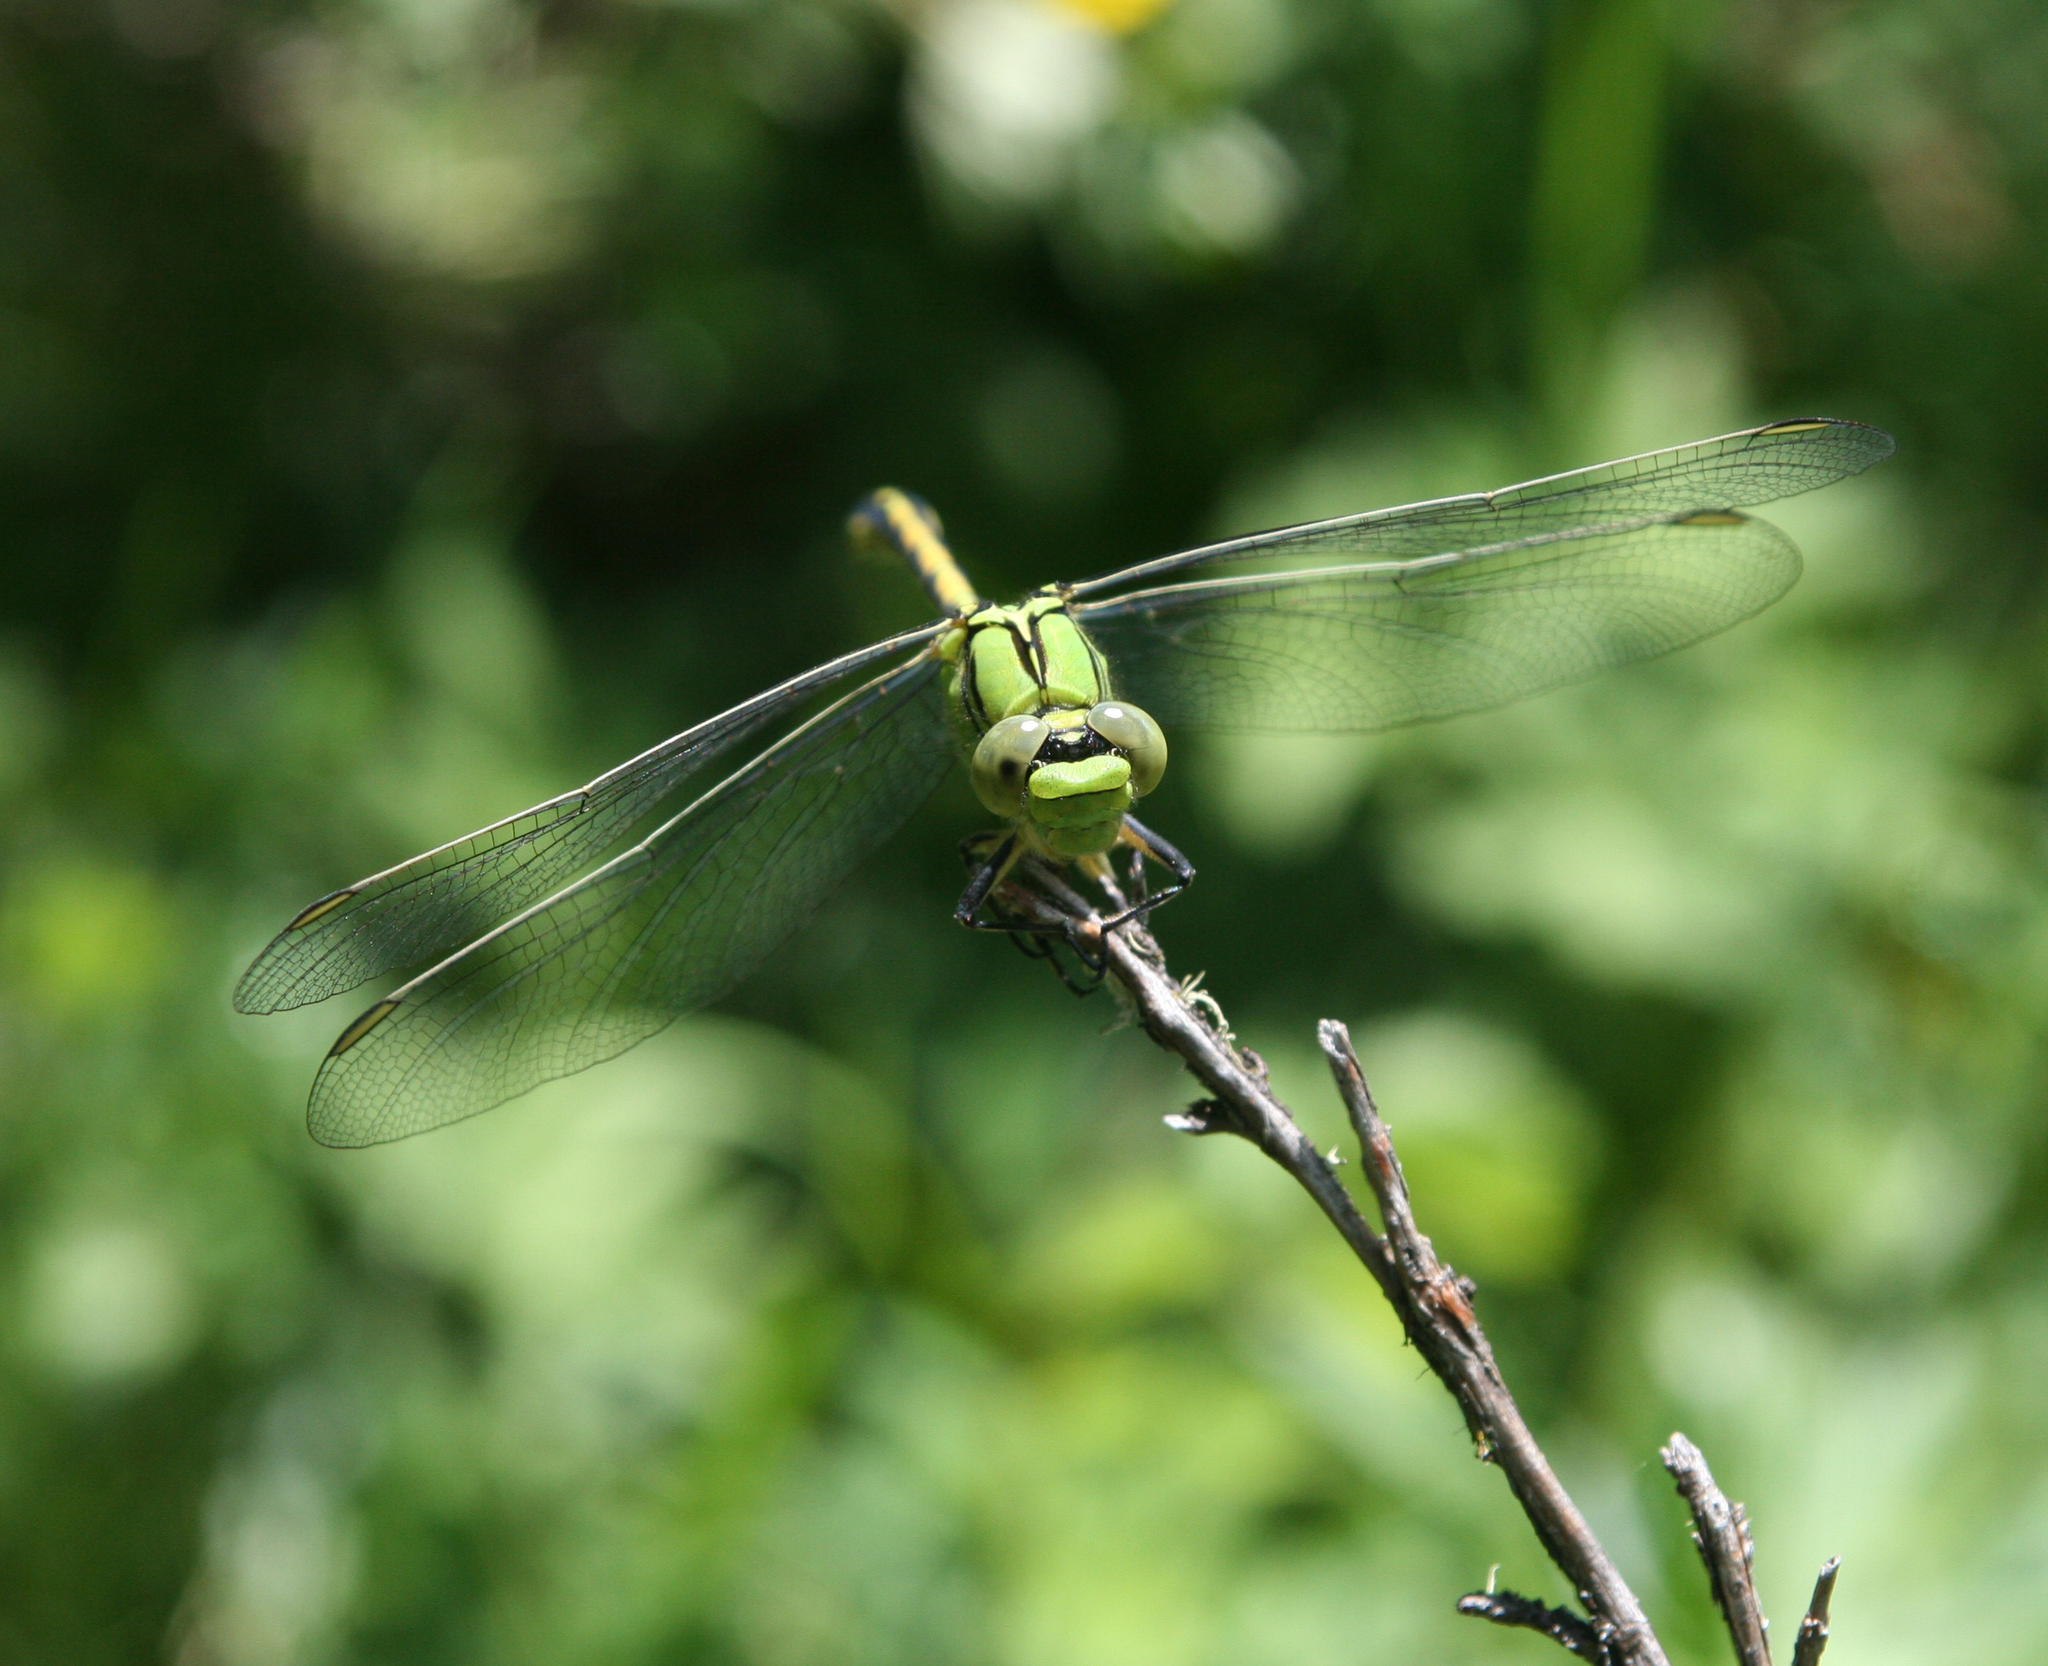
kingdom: Animalia
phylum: Arthropoda
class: Insecta
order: Odonata
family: Gomphidae
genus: Ophiogomphus
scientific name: Ophiogomphus spinicornis
